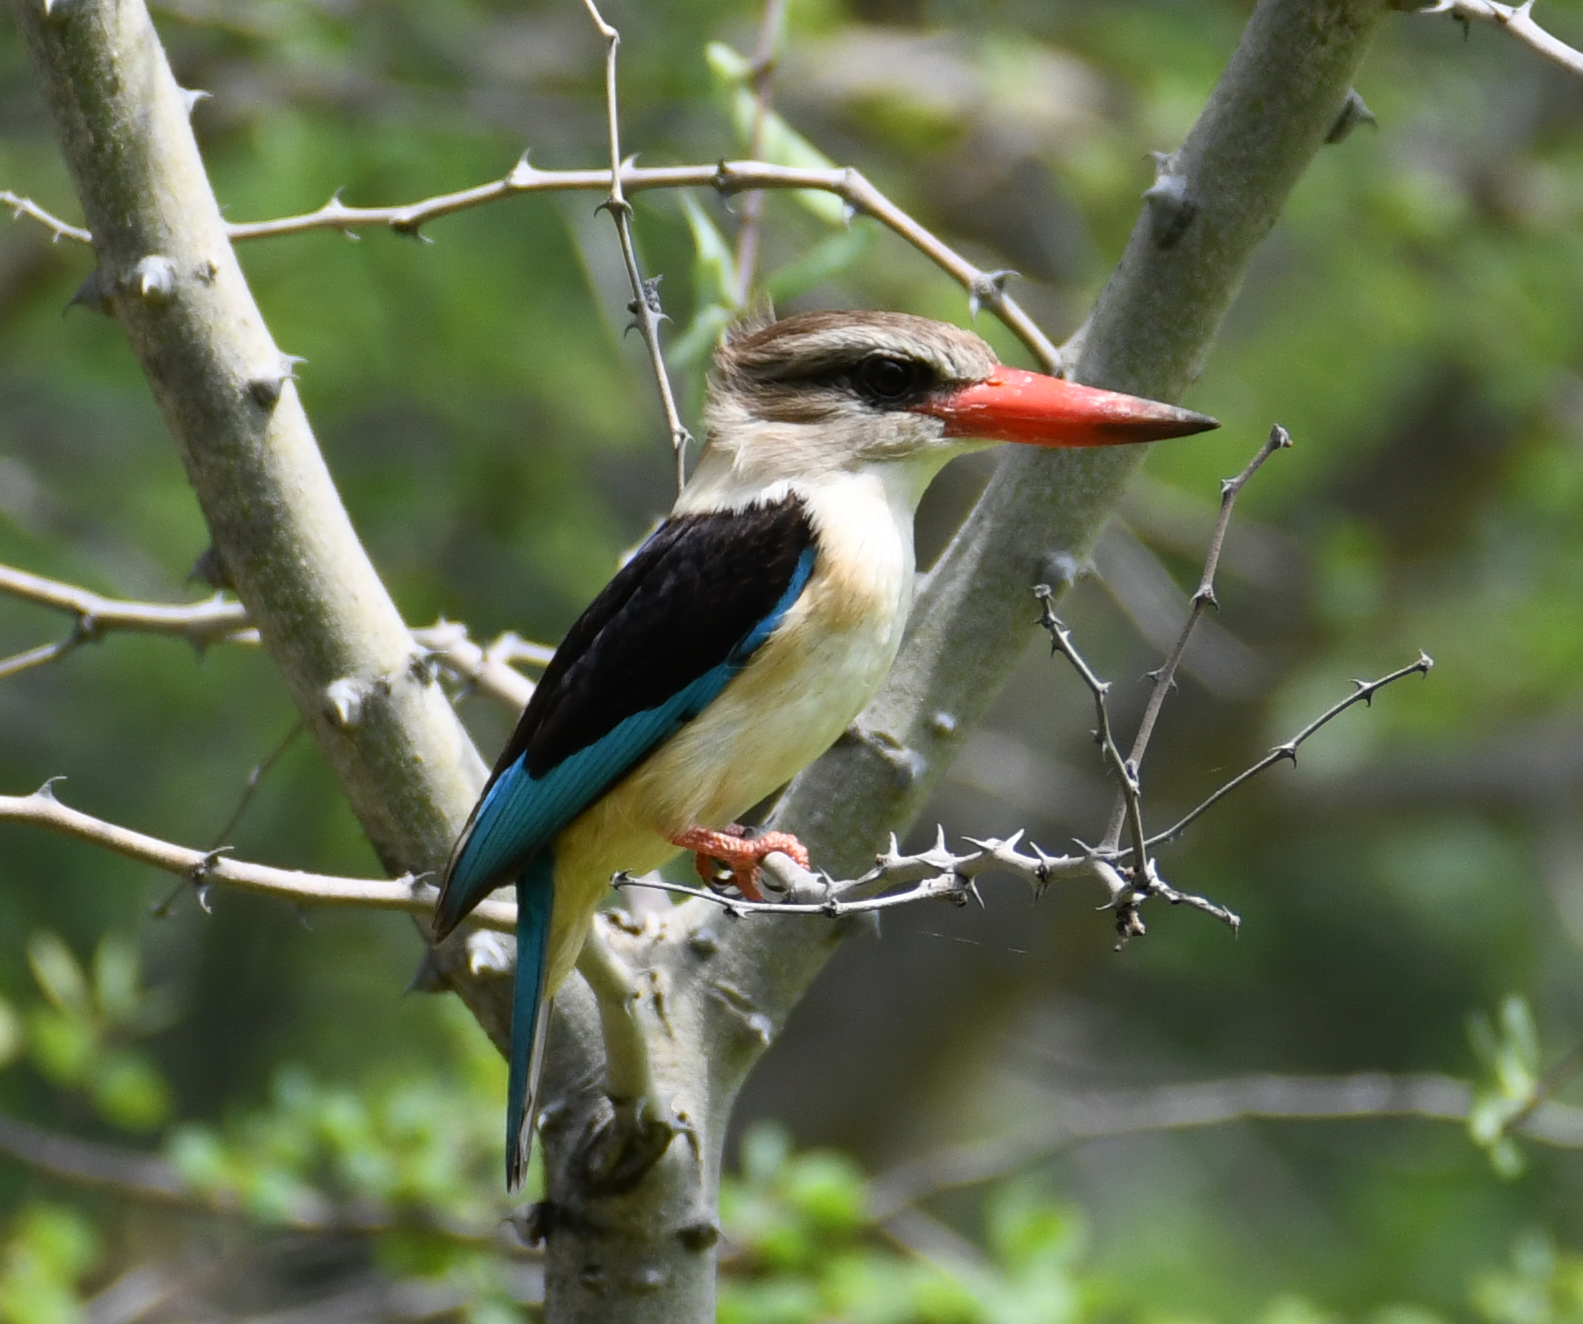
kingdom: Animalia
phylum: Chordata
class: Aves
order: Coraciiformes
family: Alcedinidae
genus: Halcyon
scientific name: Halcyon albiventris
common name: Brown-hooded kingfisher
